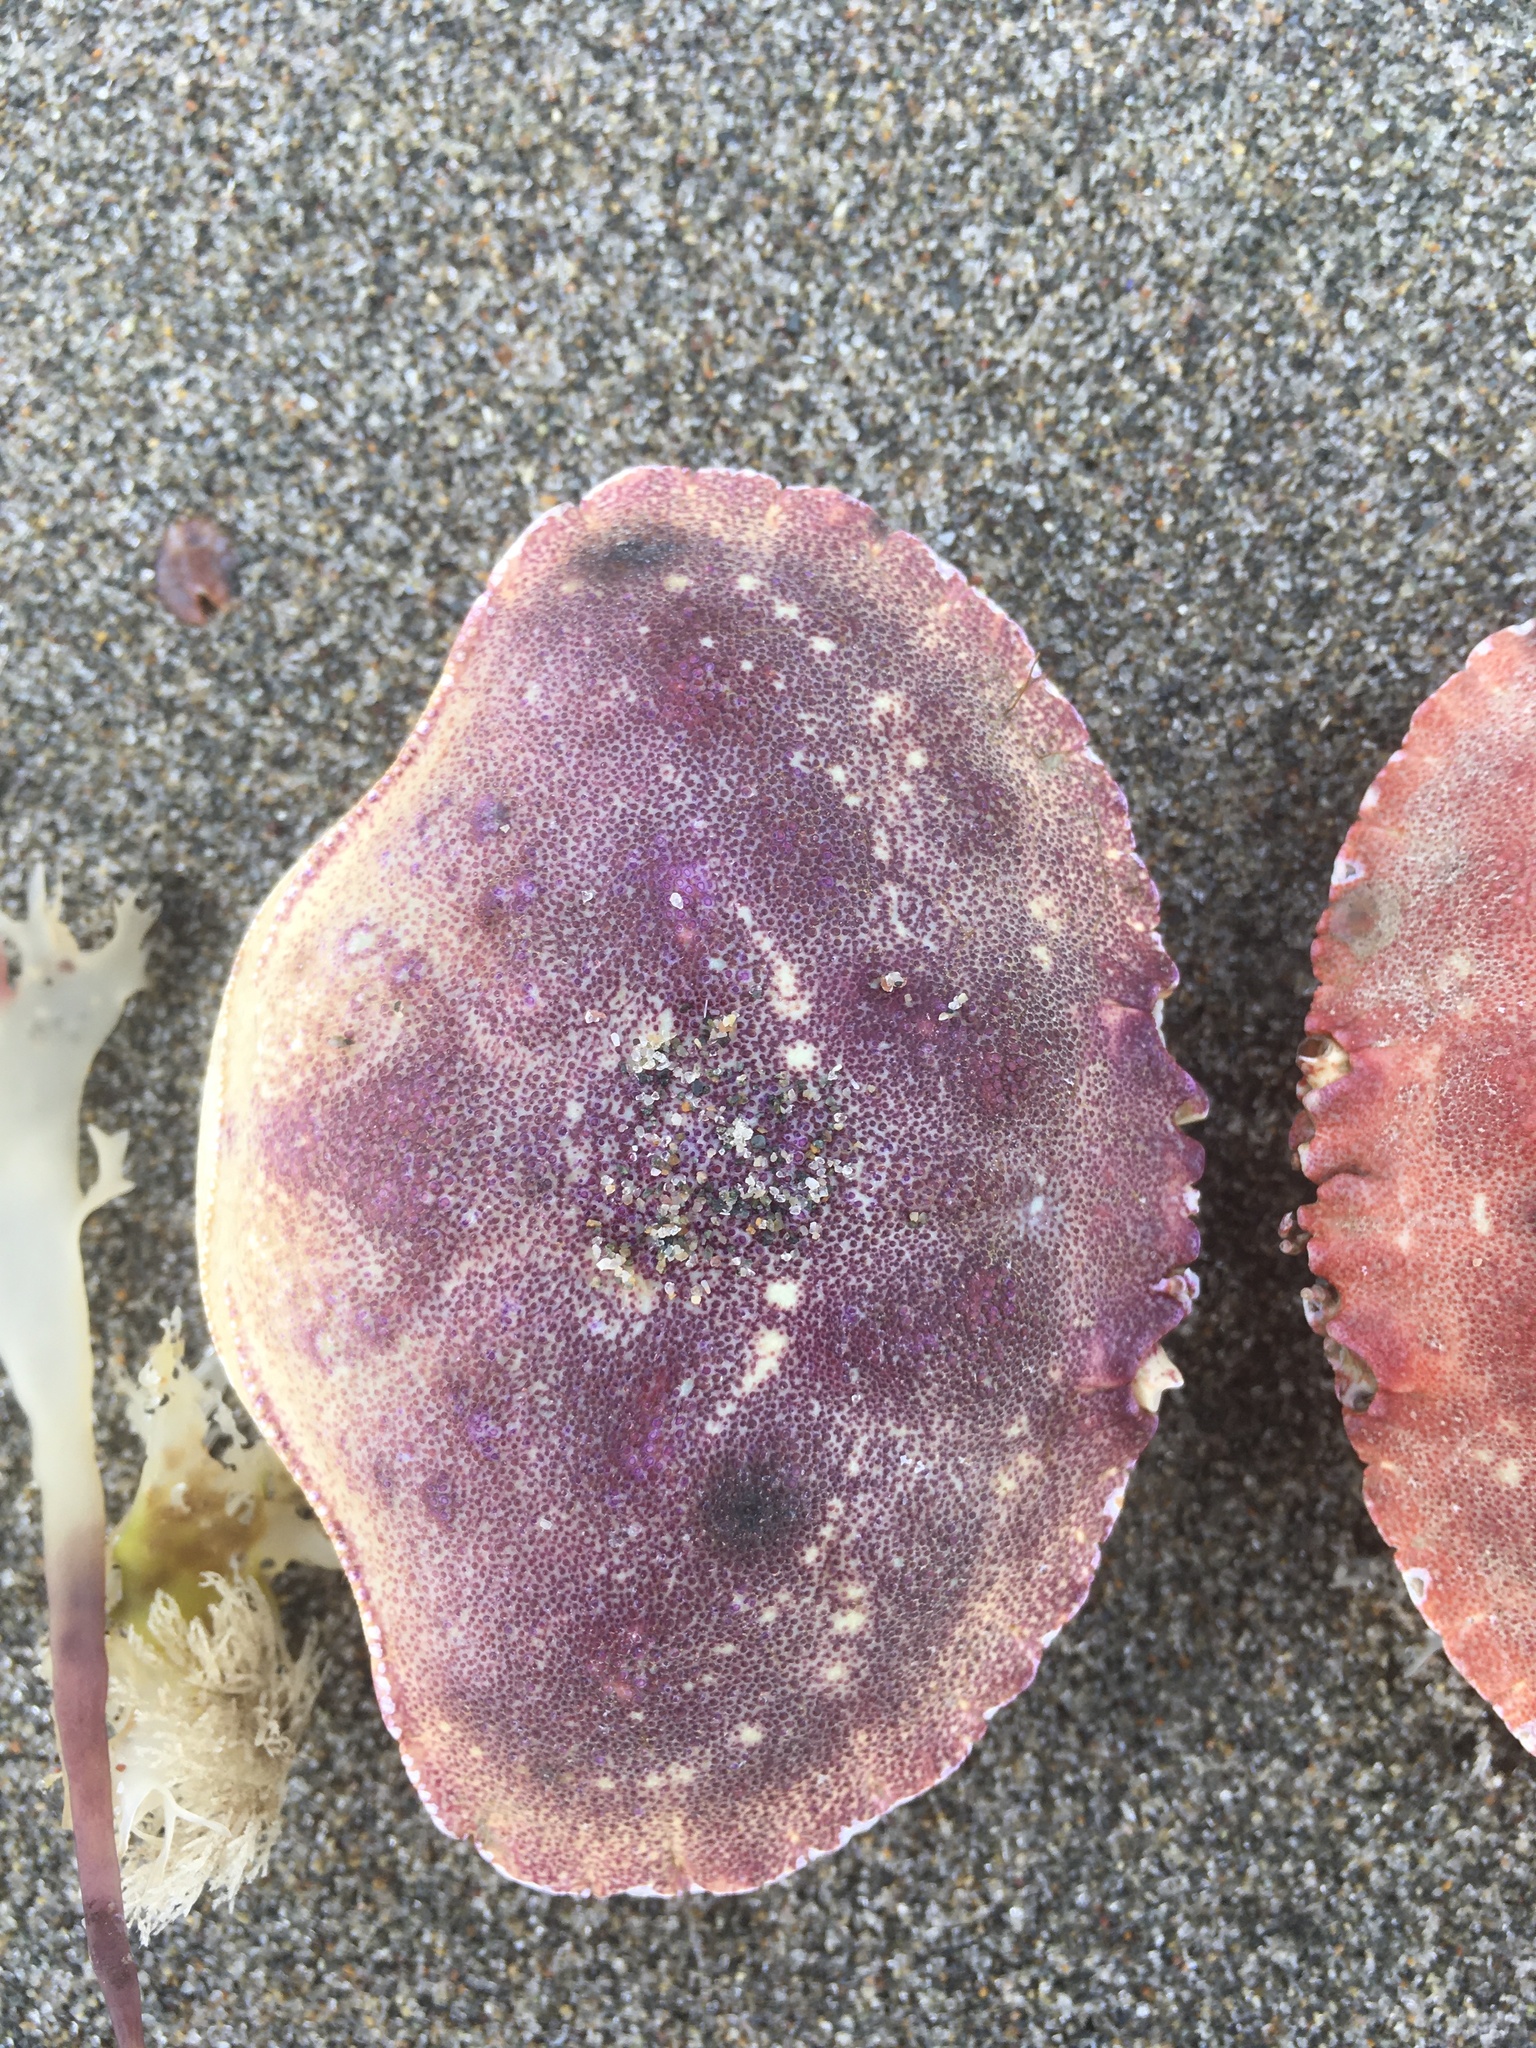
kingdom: Animalia
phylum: Arthropoda
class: Malacostraca
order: Decapoda
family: Cancridae
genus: Cancer
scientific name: Cancer borealis
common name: Jonah crab
